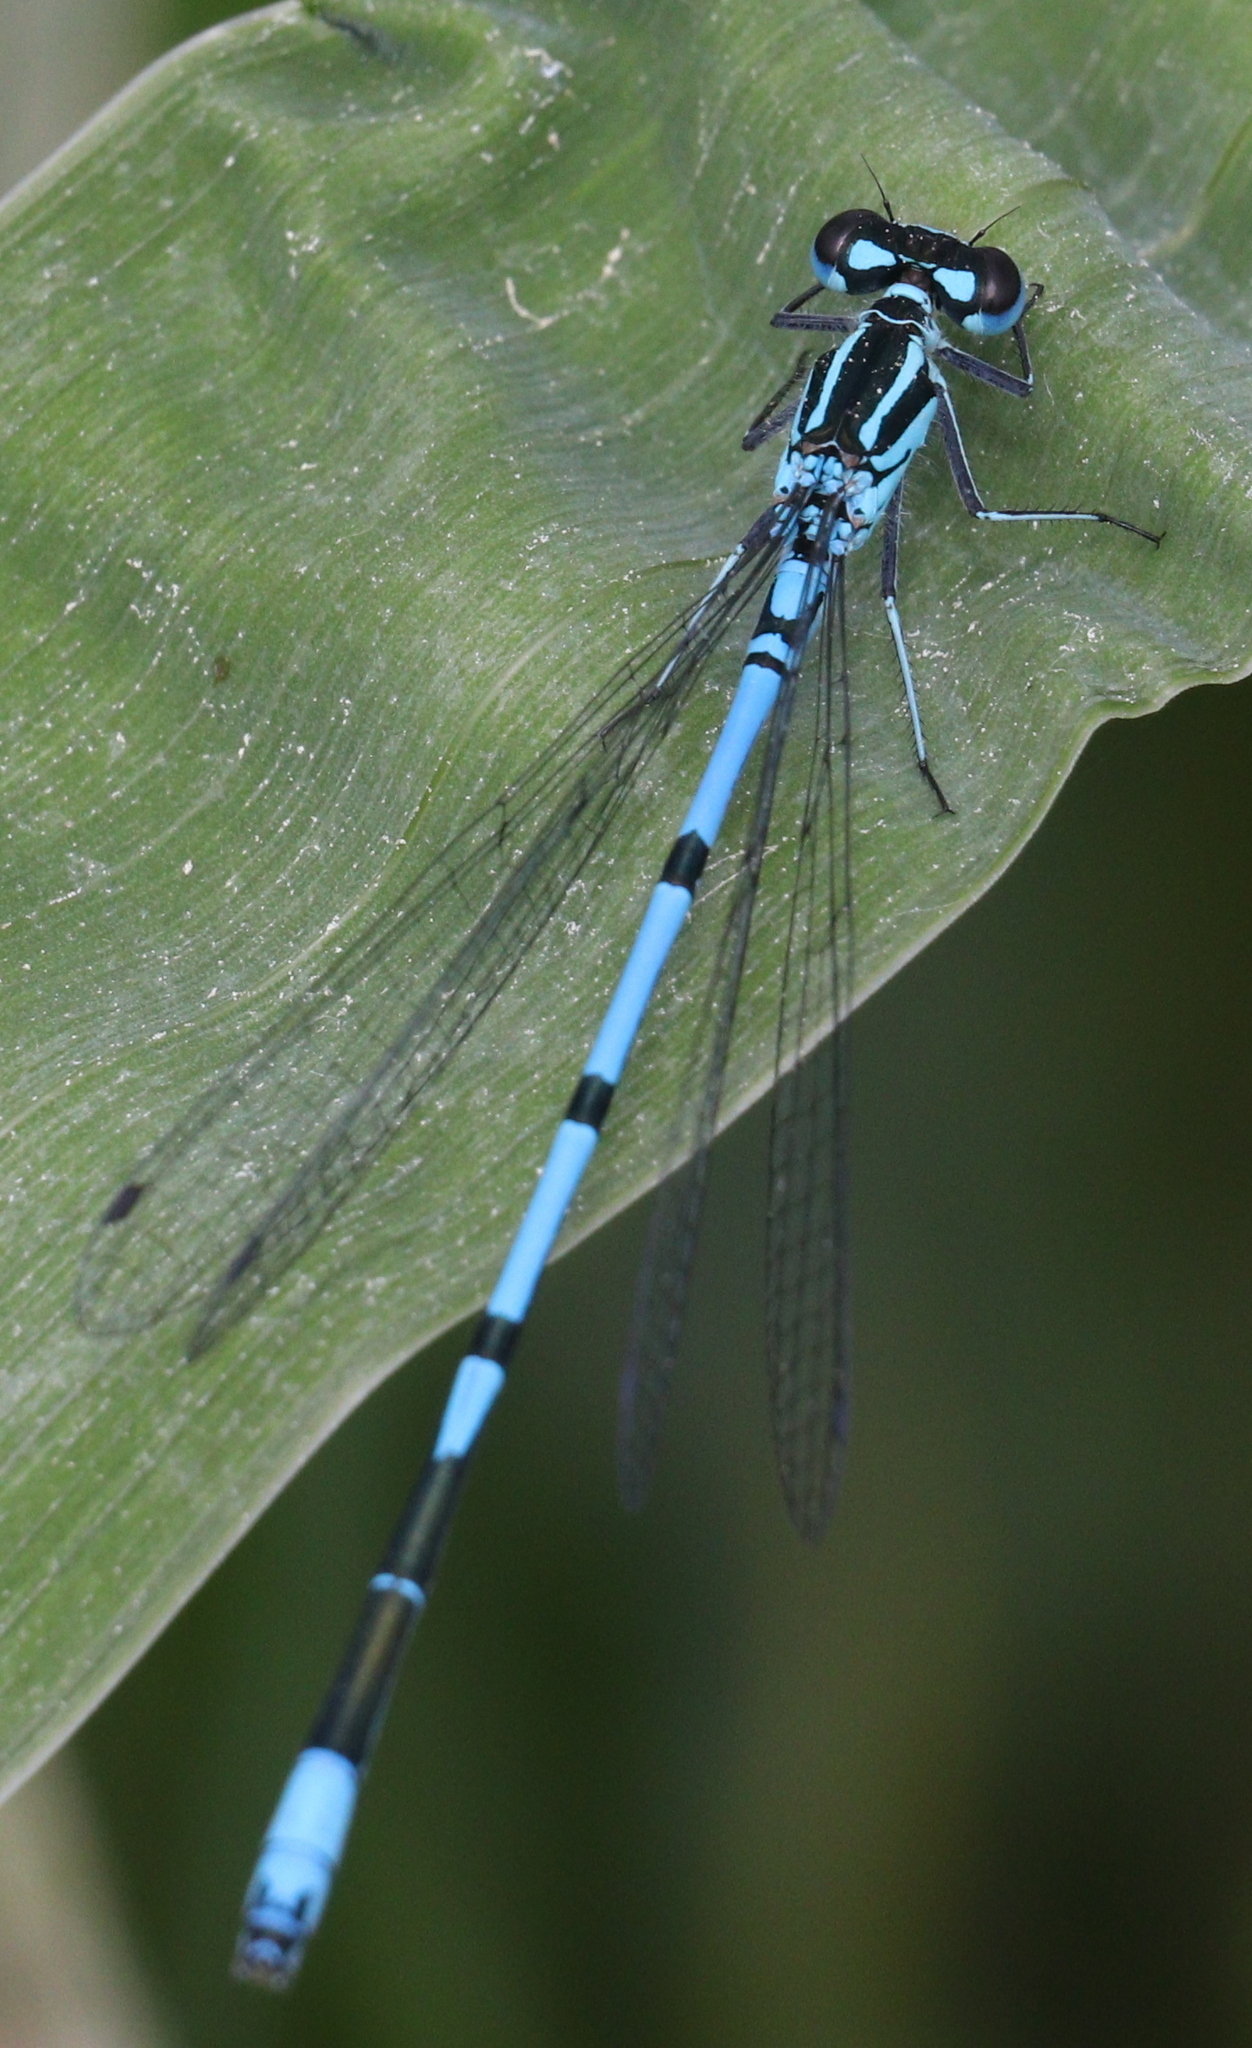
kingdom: Animalia
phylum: Arthropoda
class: Insecta
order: Odonata
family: Coenagrionidae
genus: Coenagrion
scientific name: Coenagrion puella
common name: Azure damselfly
